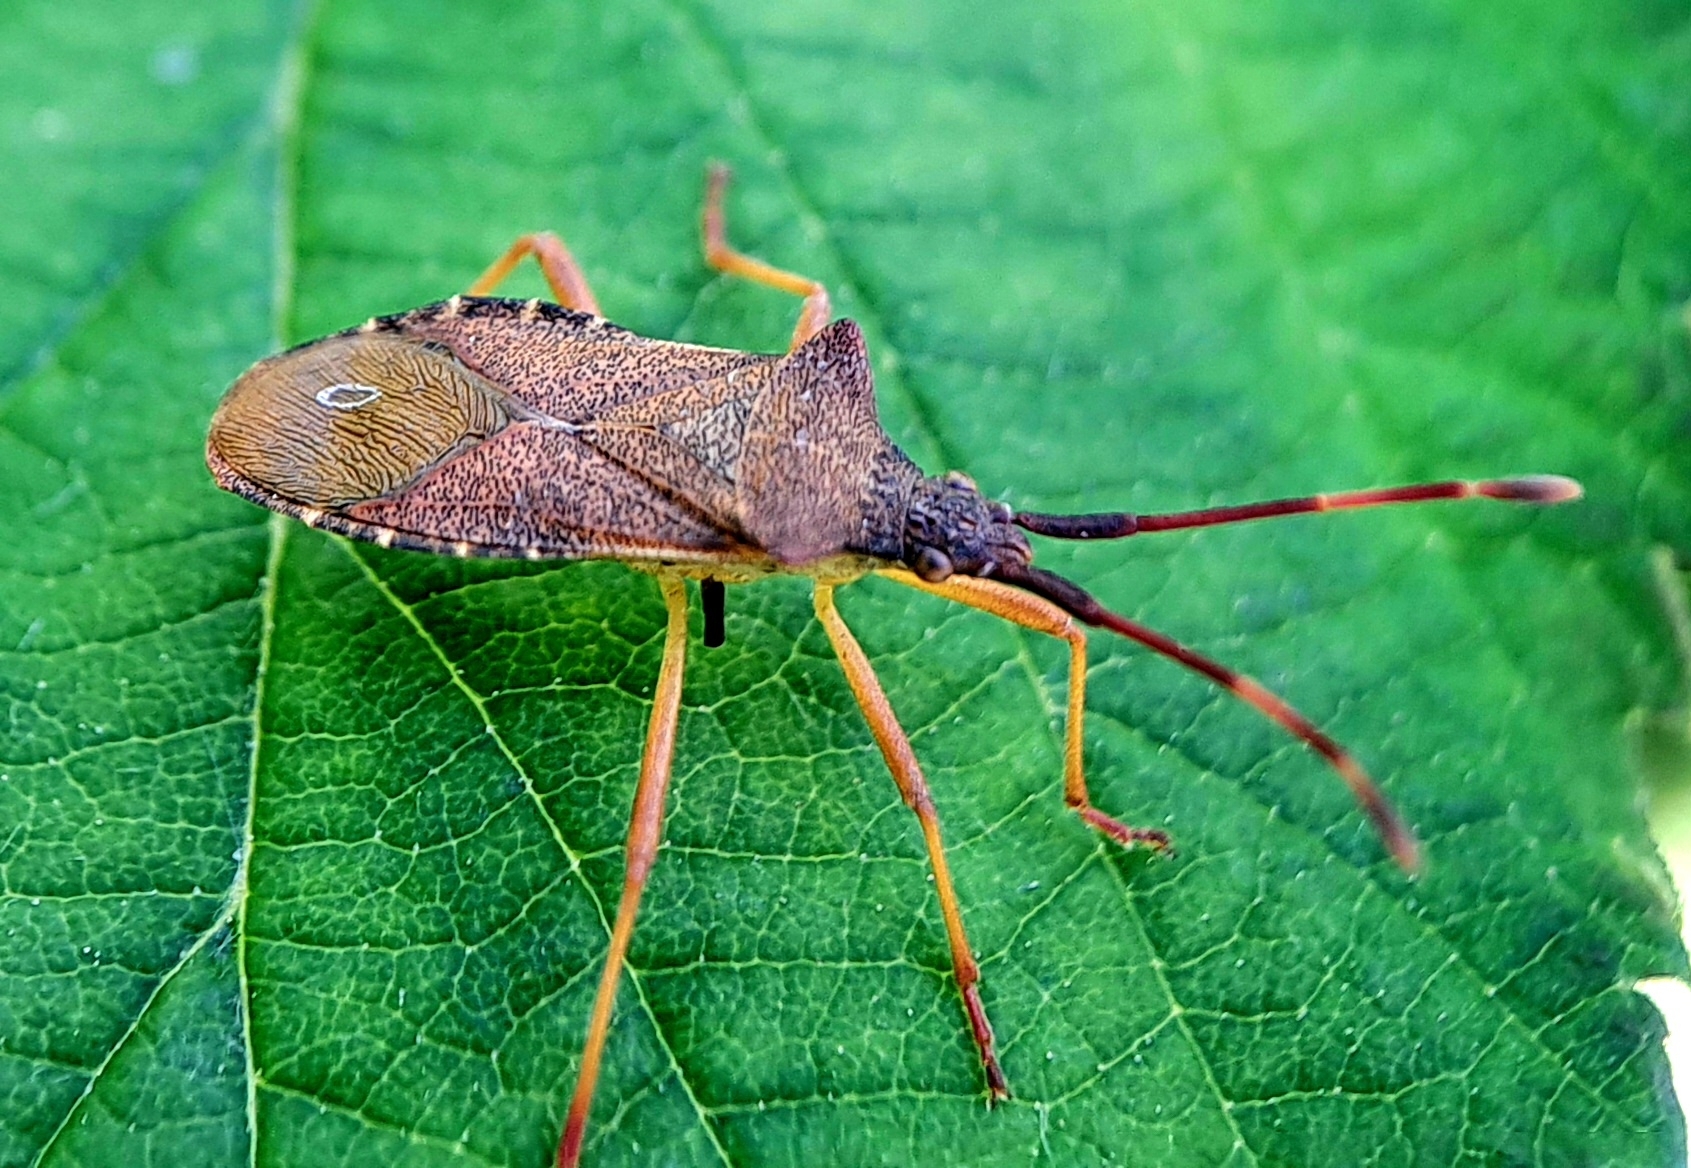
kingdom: Animalia
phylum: Arthropoda
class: Insecta
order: Hemiptera
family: Coreidae
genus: Gonocerus
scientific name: Gonocerus acuteangulatus
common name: Box bug
